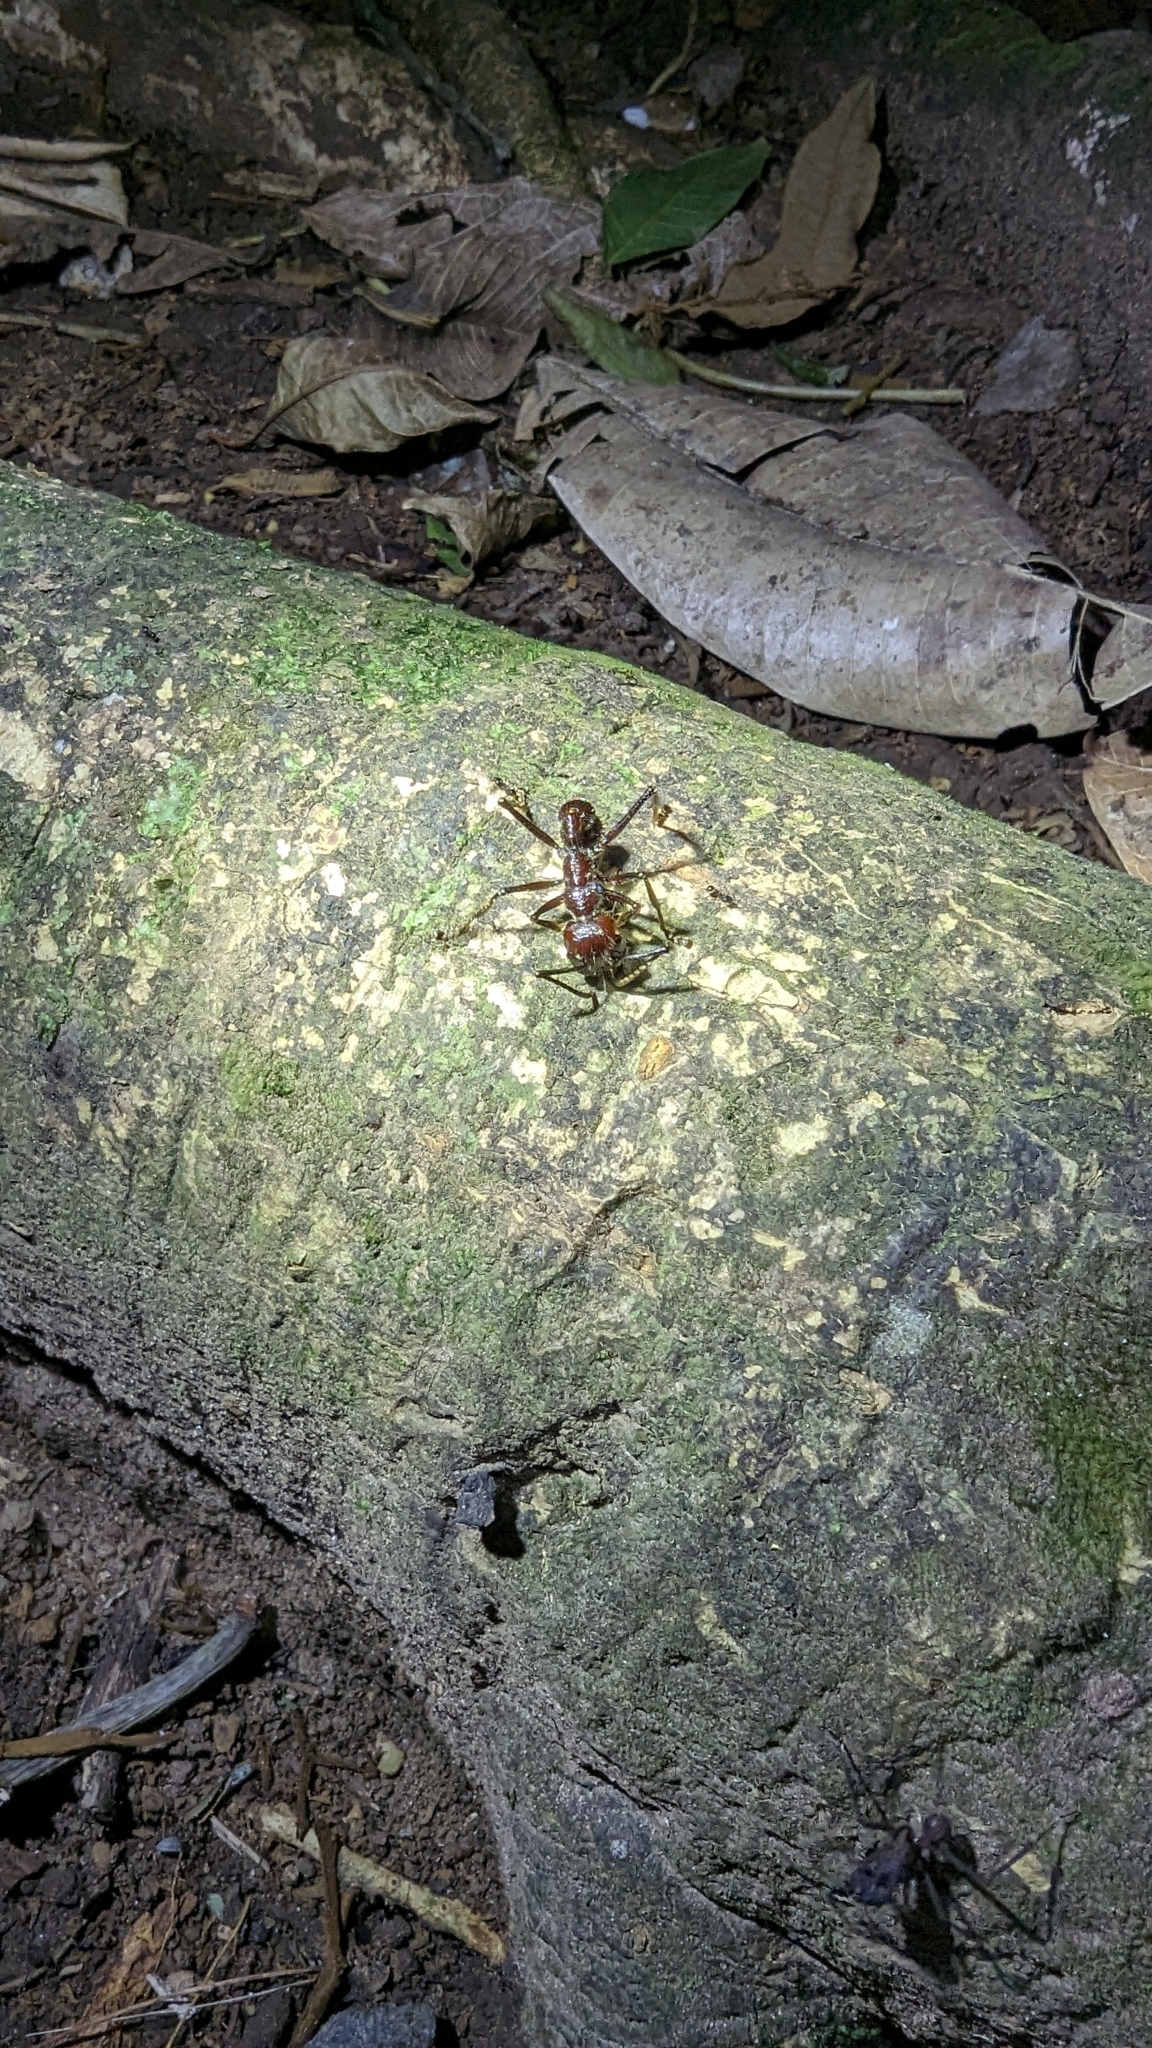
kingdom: Animalia
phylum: Arthropoda
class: Insecta
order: Hymenoptera
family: Formicidae
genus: Paraponera
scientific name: Paraponera clavata
